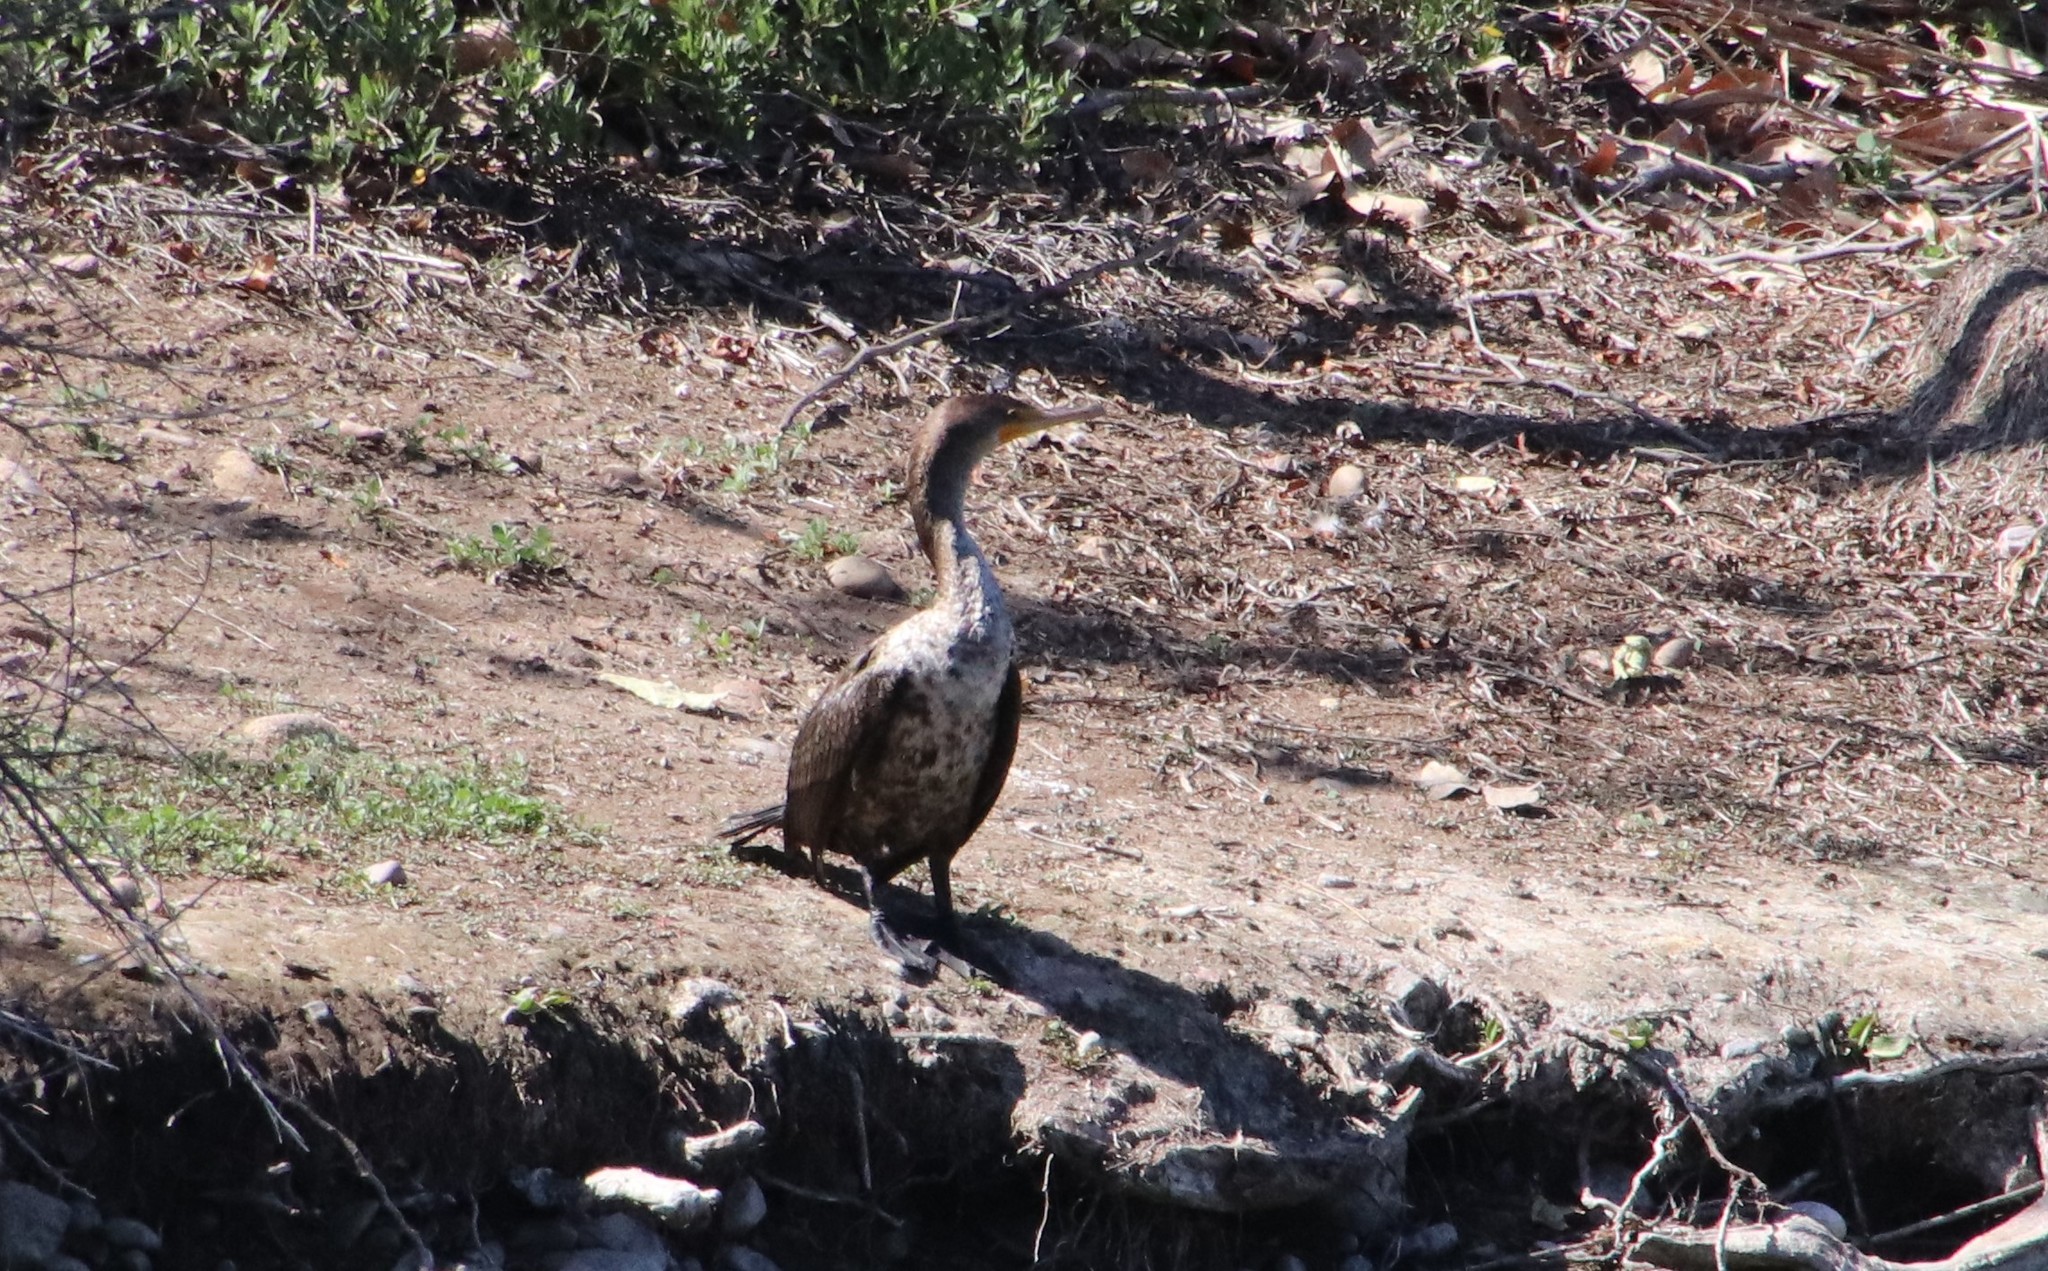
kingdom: Animalia
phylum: Chordata
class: Aves
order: Suliformes
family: Phalacrocoracidae
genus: Phalacrocorax
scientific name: Phalacrocorax auritus
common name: Double-crested cormorant
